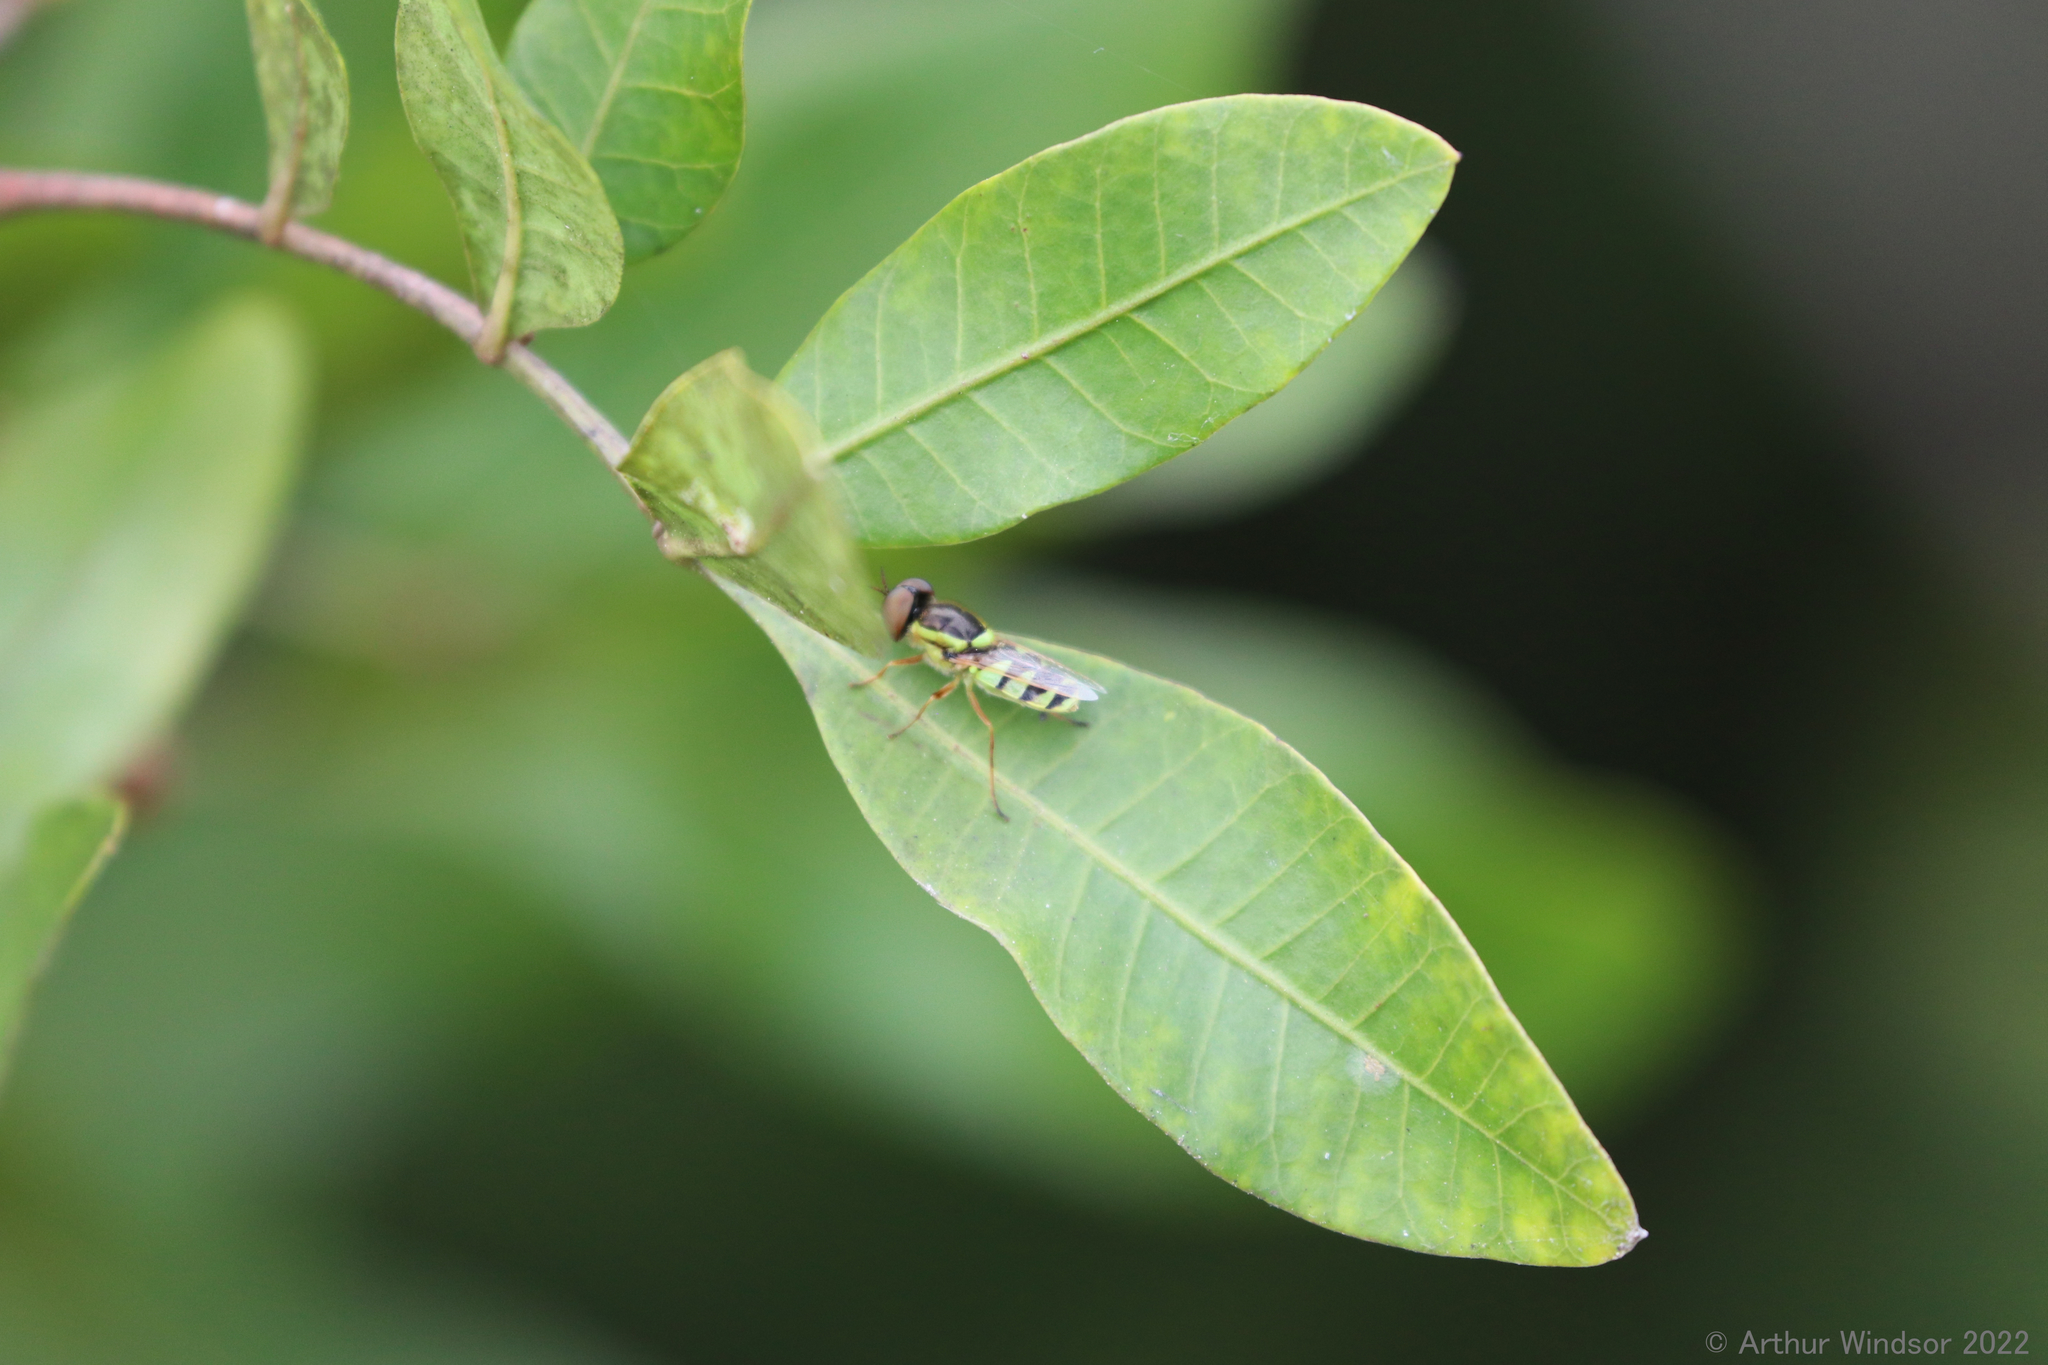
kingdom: Animalia
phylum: Arthropoda
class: Insecta
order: Diptera
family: Stratiomyidae
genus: Odontomyia
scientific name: Odontomyia cincta
